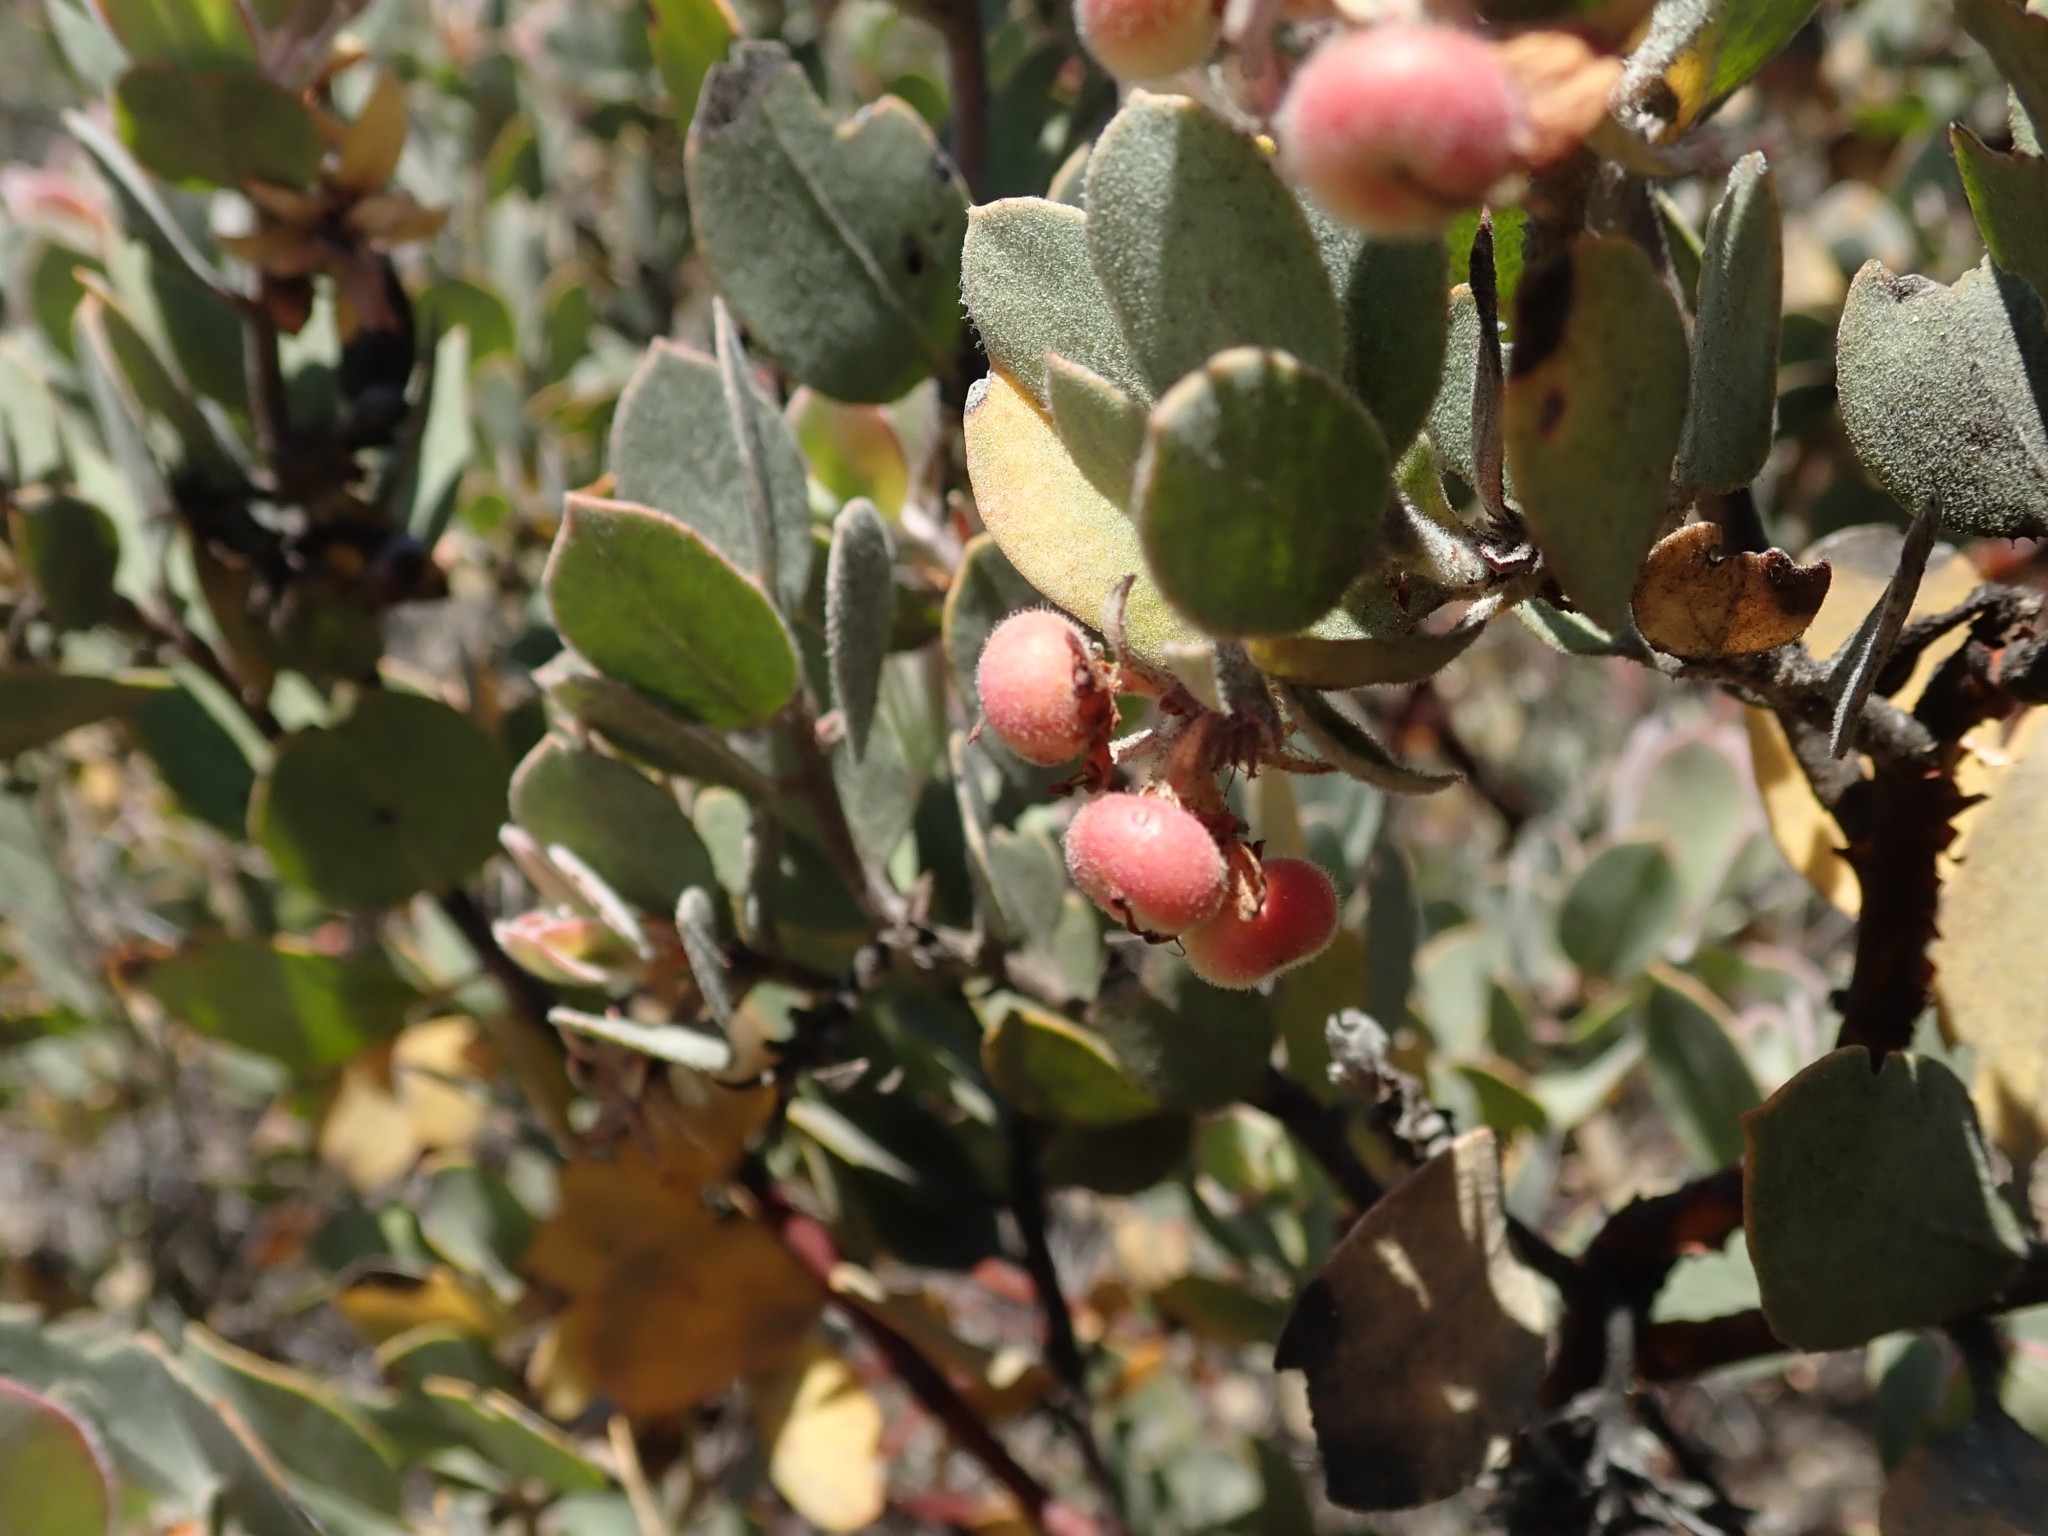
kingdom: Plantae
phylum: Tracheophyta
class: Magnoliopsida
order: Ericales
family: Ericaceae
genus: Arctostaphylos
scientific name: Arctostaphylos canescens
